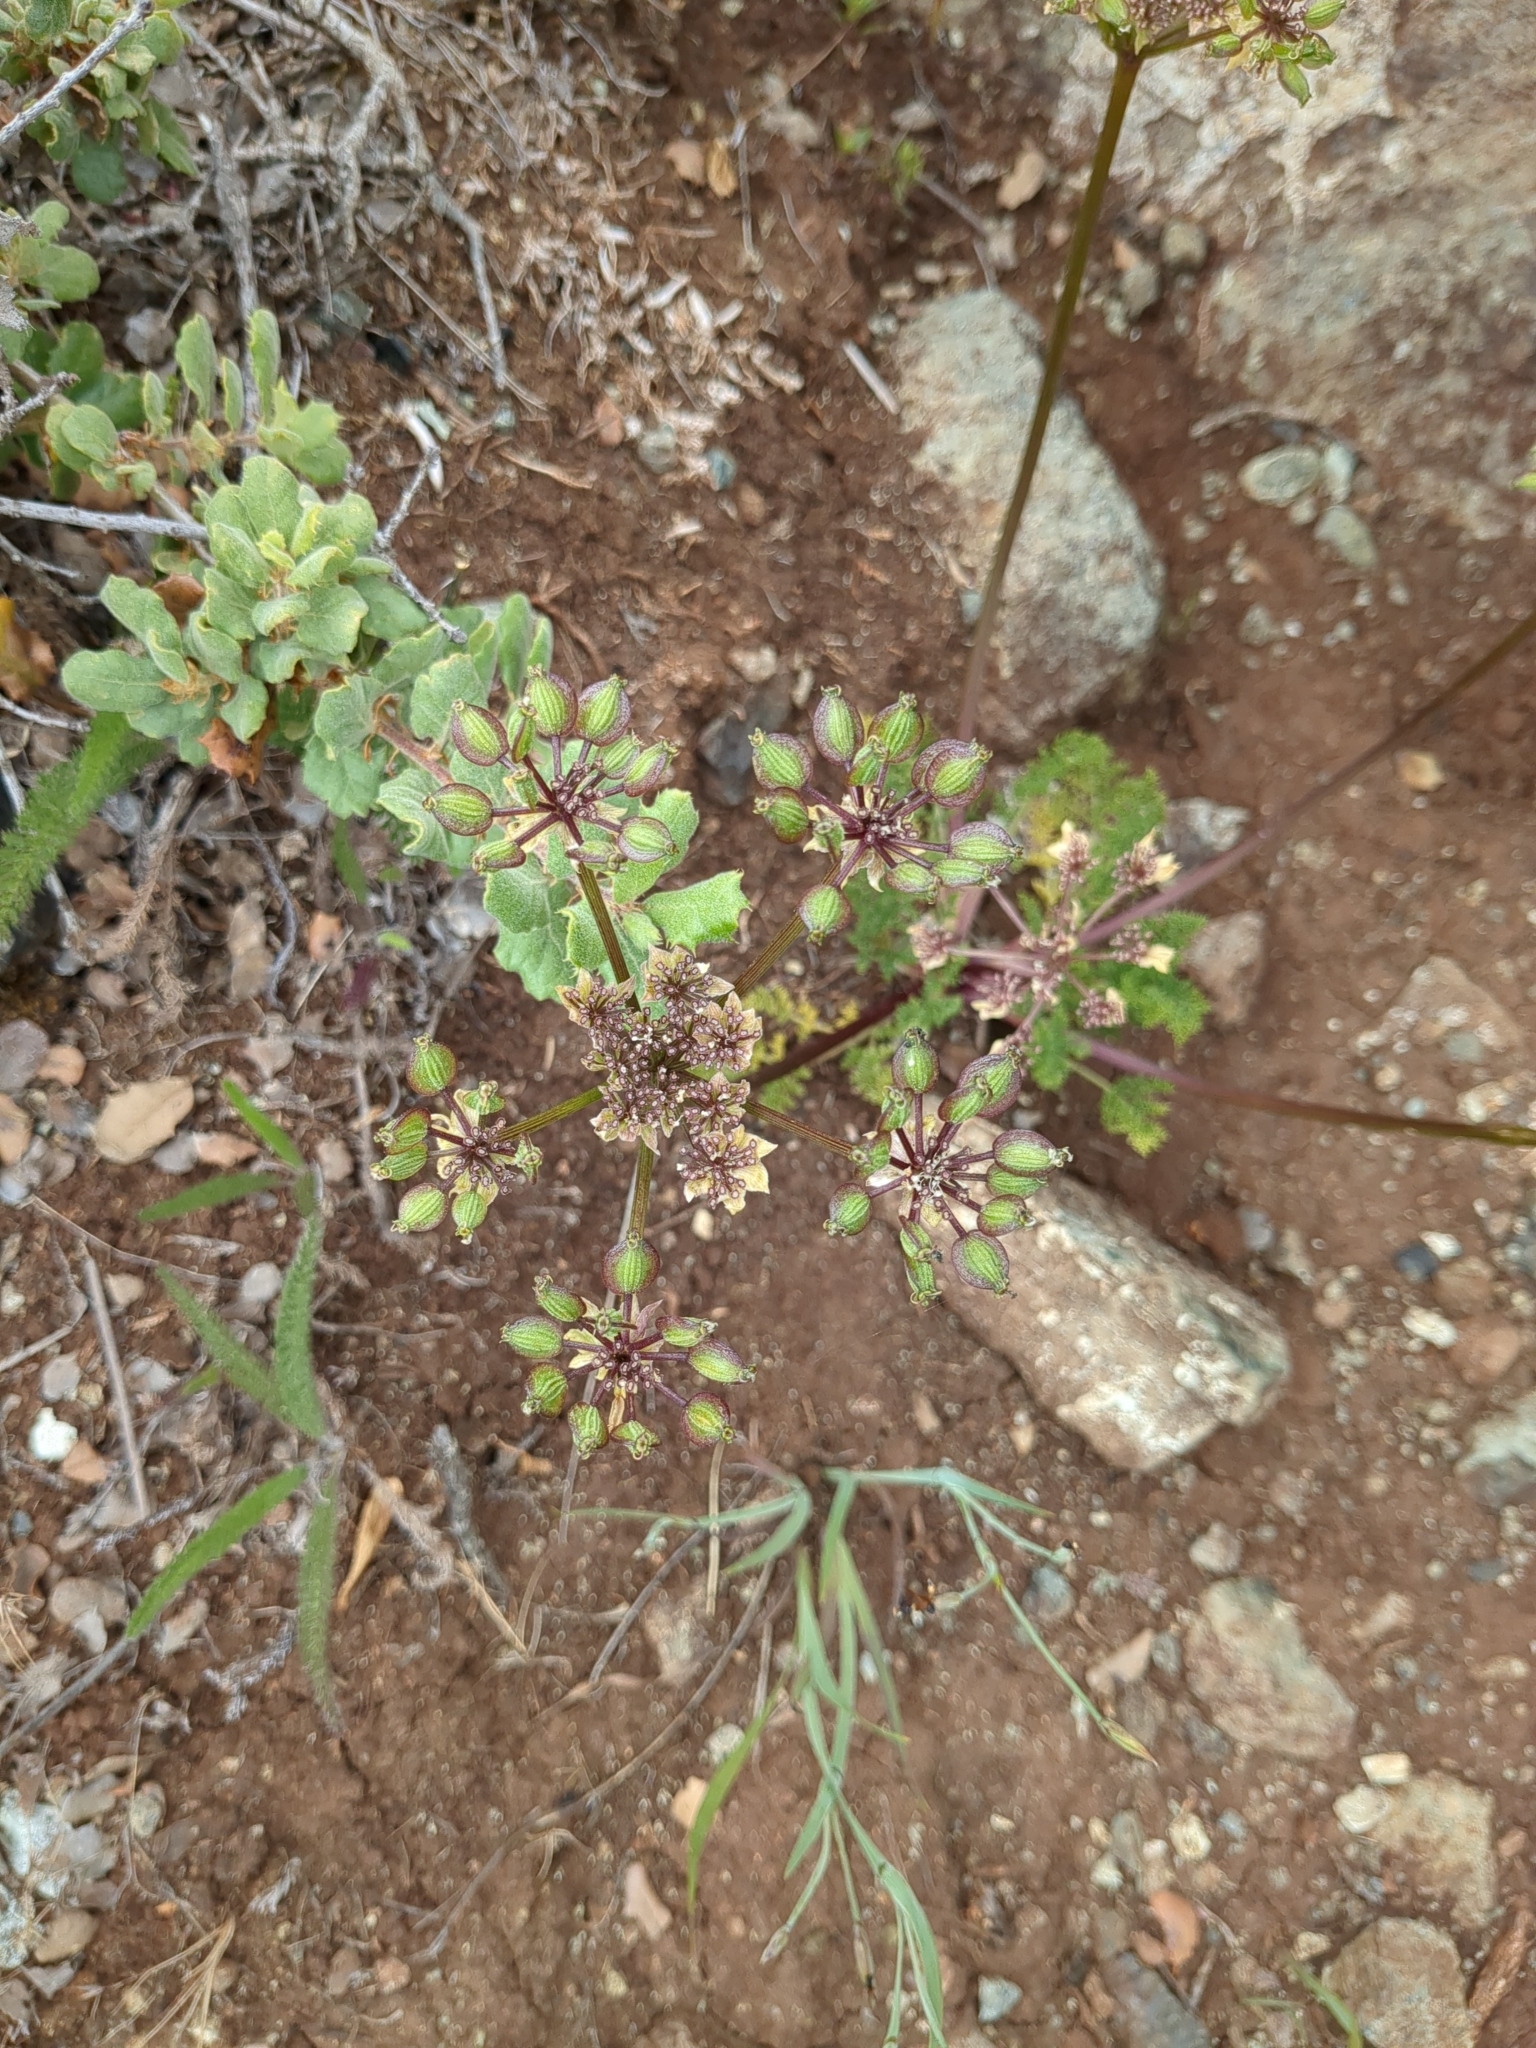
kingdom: Plantae
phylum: Tracheophyta
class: Magnoliopsida
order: Apiales
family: Apiaceae
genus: Lomatium
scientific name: Lomatium dasycarpum
